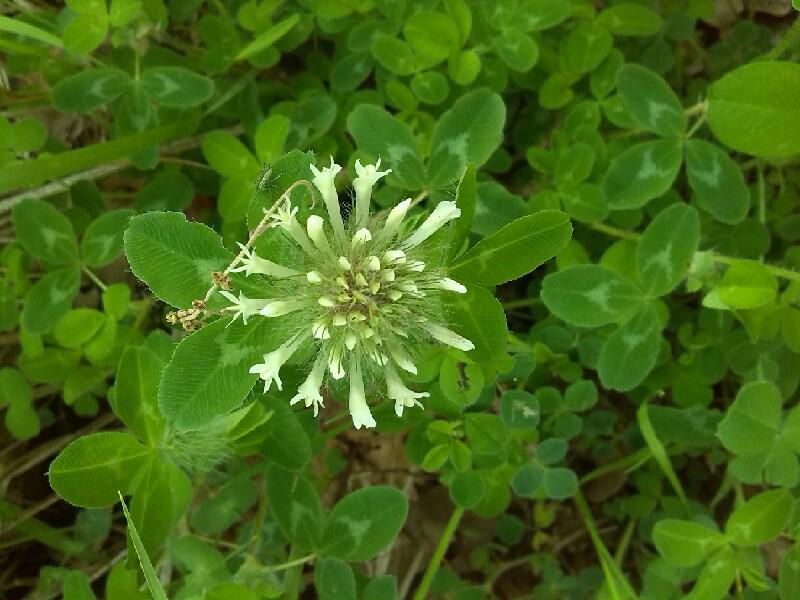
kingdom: Plantae
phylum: Tracheophyta
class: Magnoliopsida
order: Fabales
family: Fabaceae
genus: Trifolium
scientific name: Trifolium pignantii
